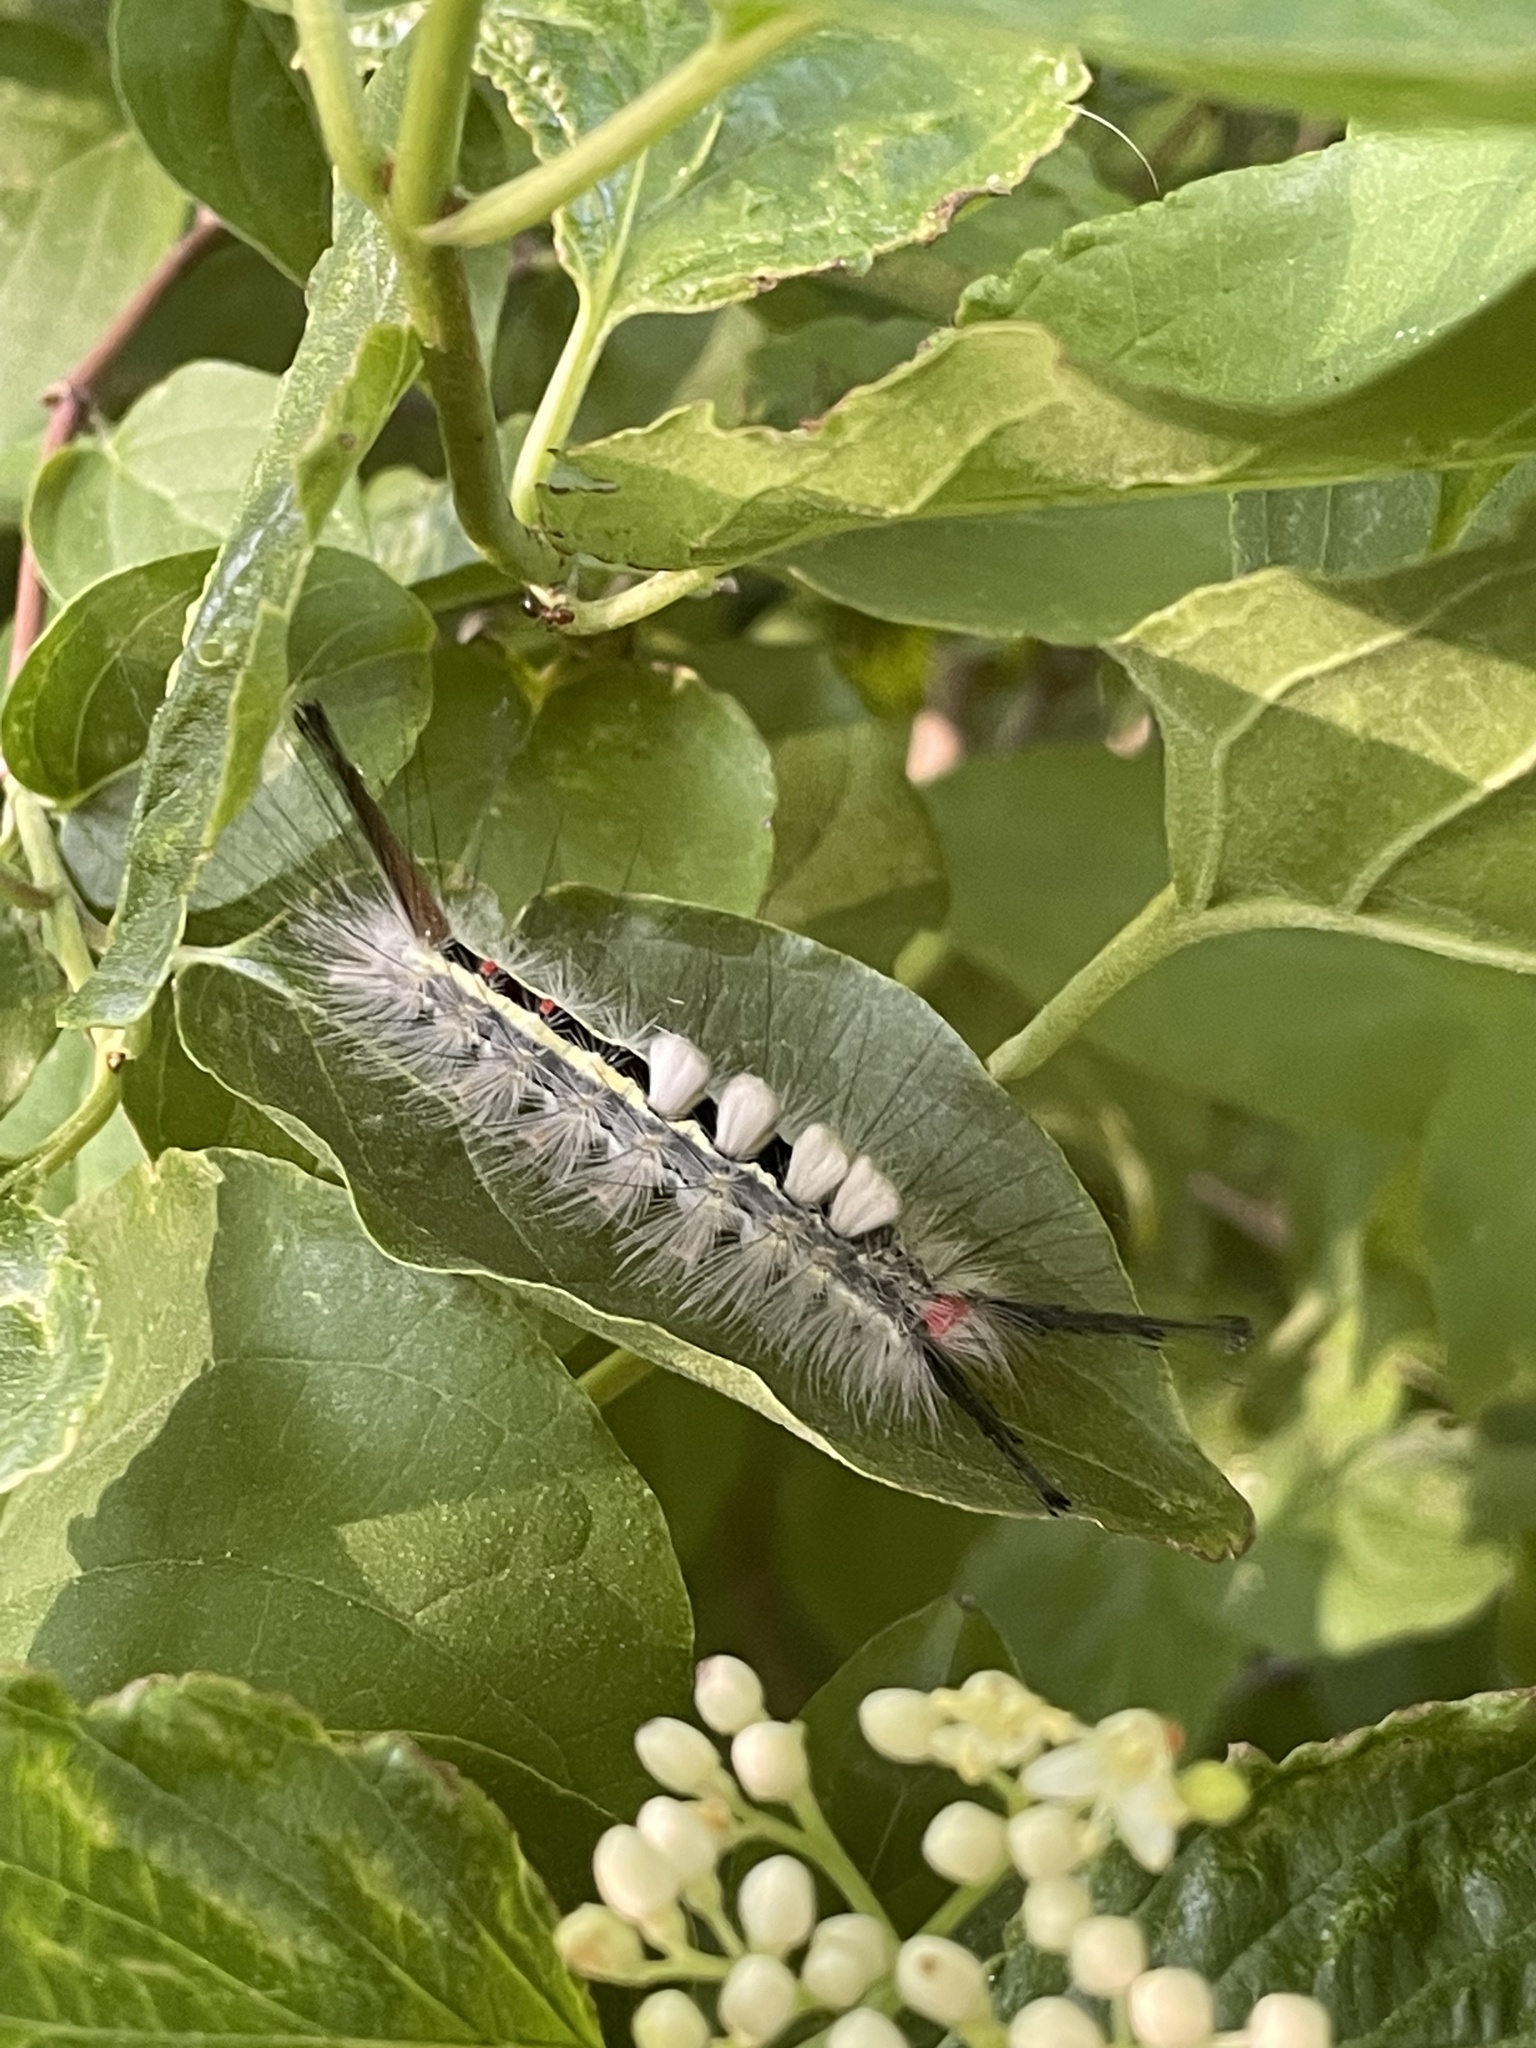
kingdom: Animalia
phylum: Arthropoda
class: Insecta
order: Lepidoptera
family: Erebidae
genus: Orgyia
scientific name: Orgyia leucostigma
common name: White-marked tussock moth
